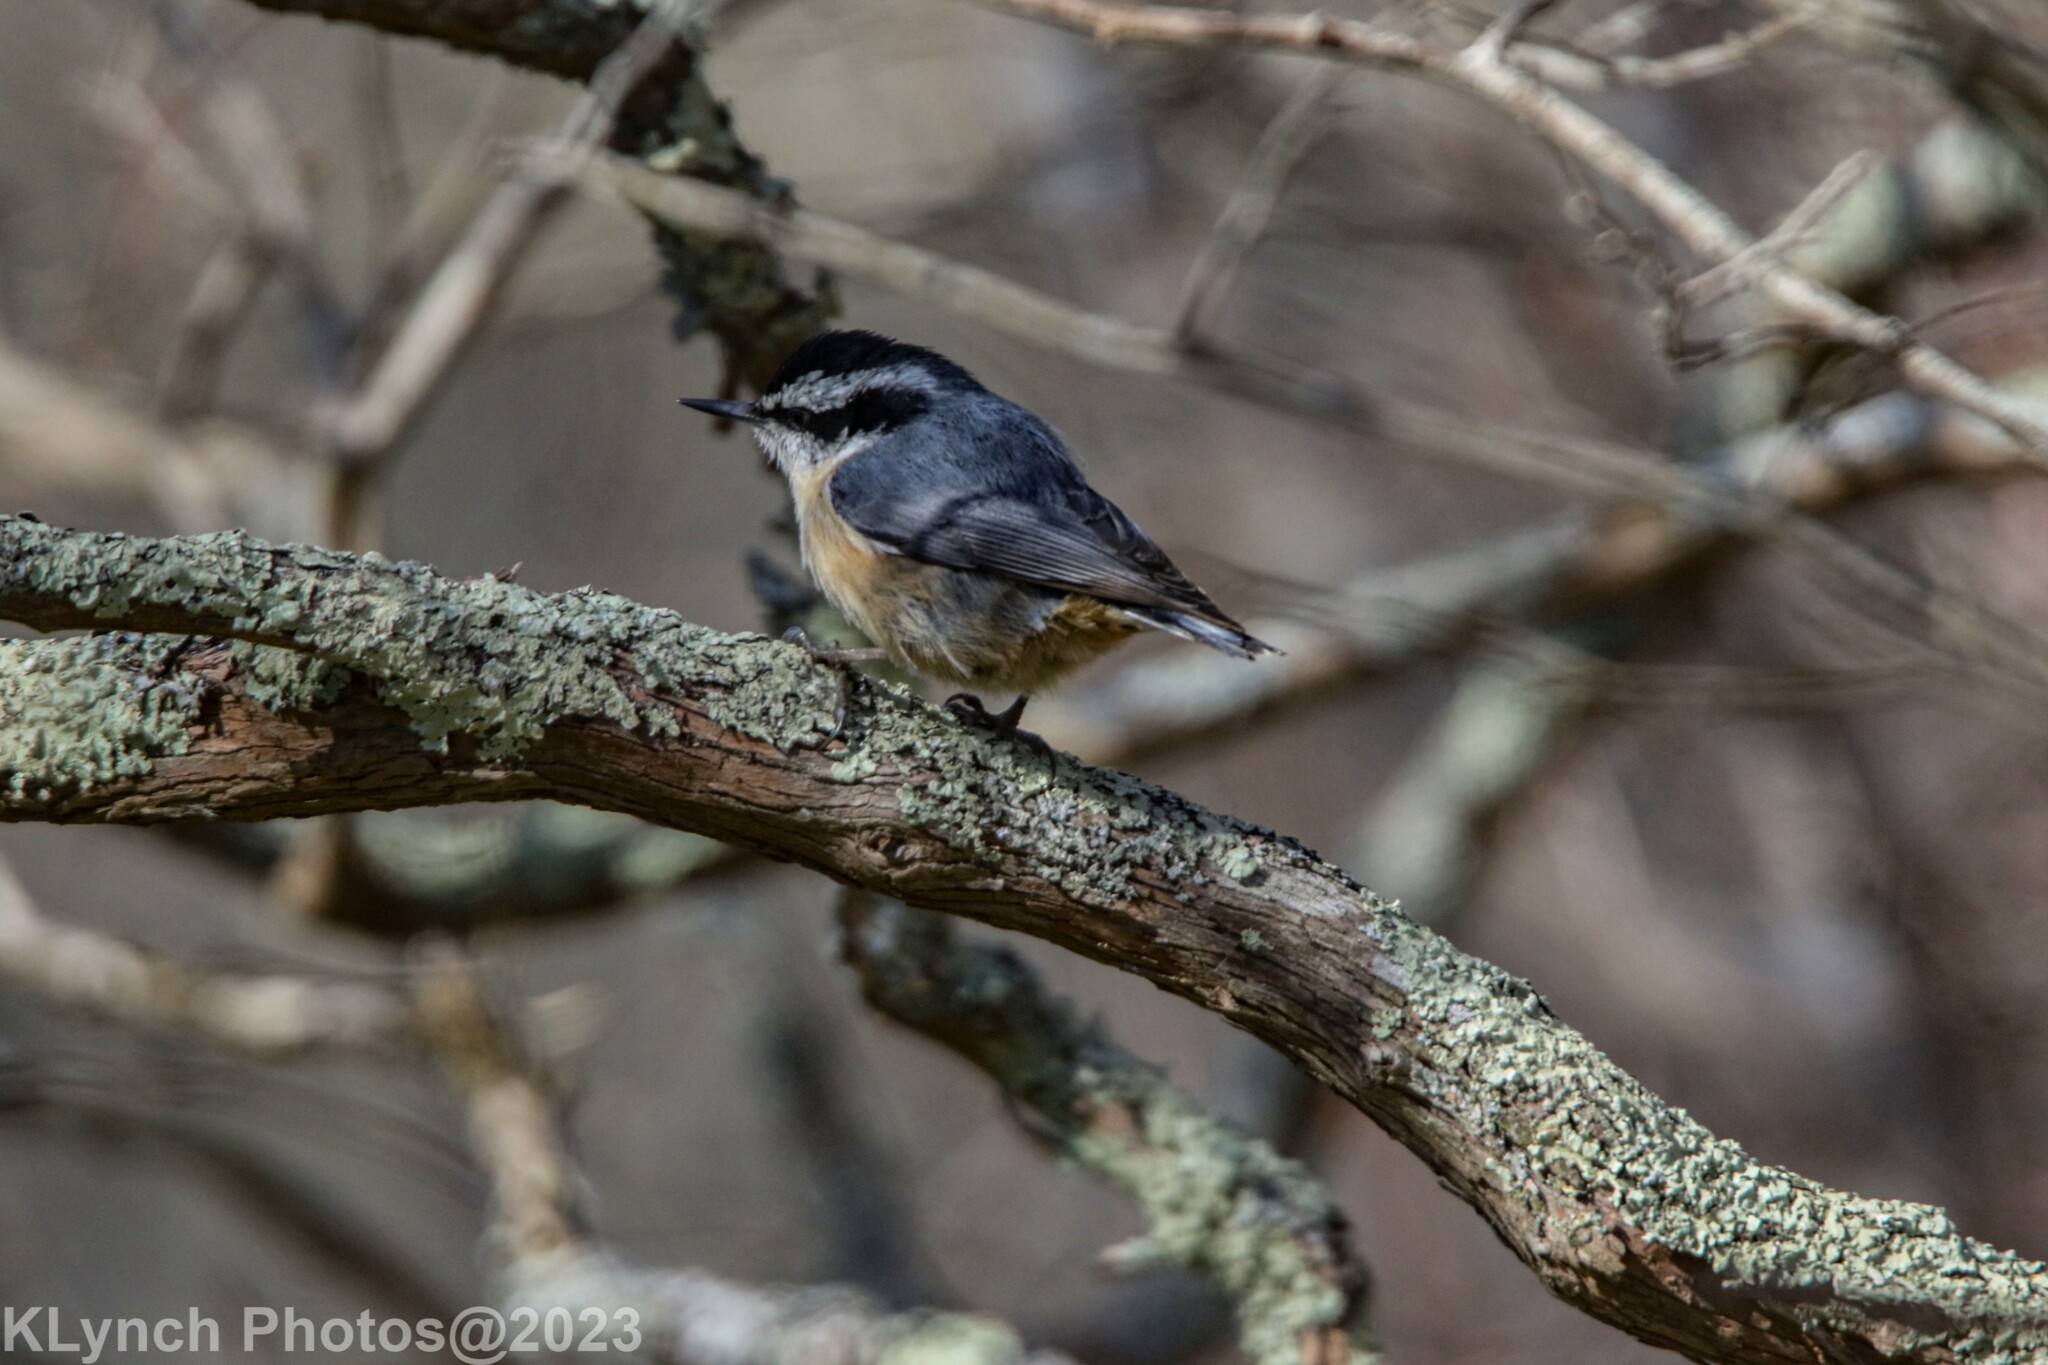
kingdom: Animalia
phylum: Chordata
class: Aves
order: Passeriformes
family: Sittidae
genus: Sitta
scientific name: Sitta canadensis
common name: Red-breasted nuthatch
